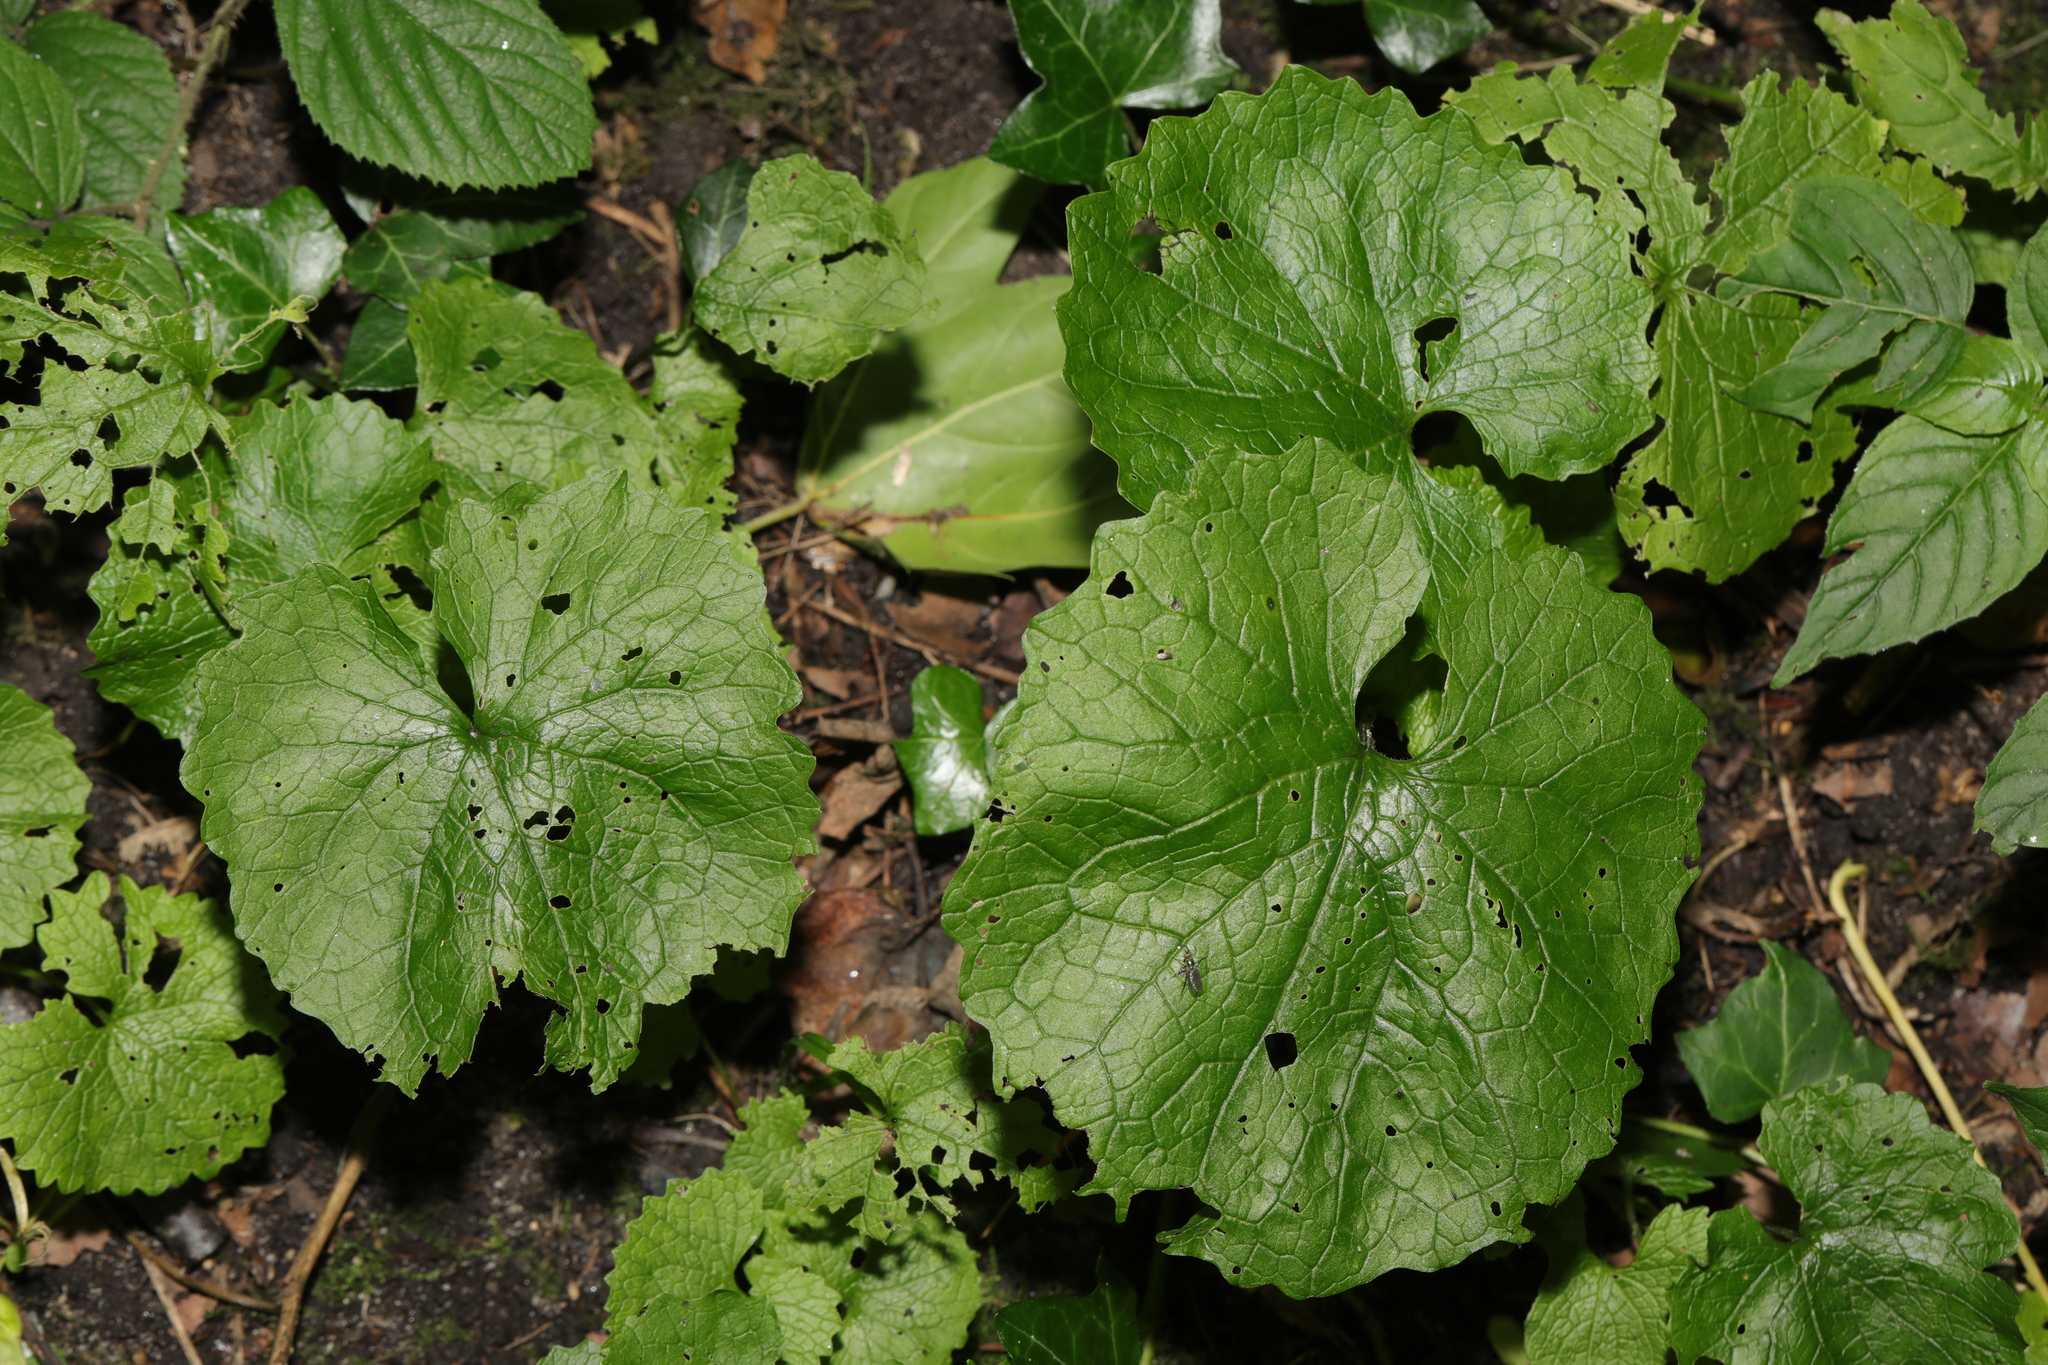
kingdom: Plantae
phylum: Tracheophyta
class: Magnoliopsida
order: Brassicales
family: Brassicaceae
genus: Alliaria
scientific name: Alliaria petiolata
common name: Garlic mustard
